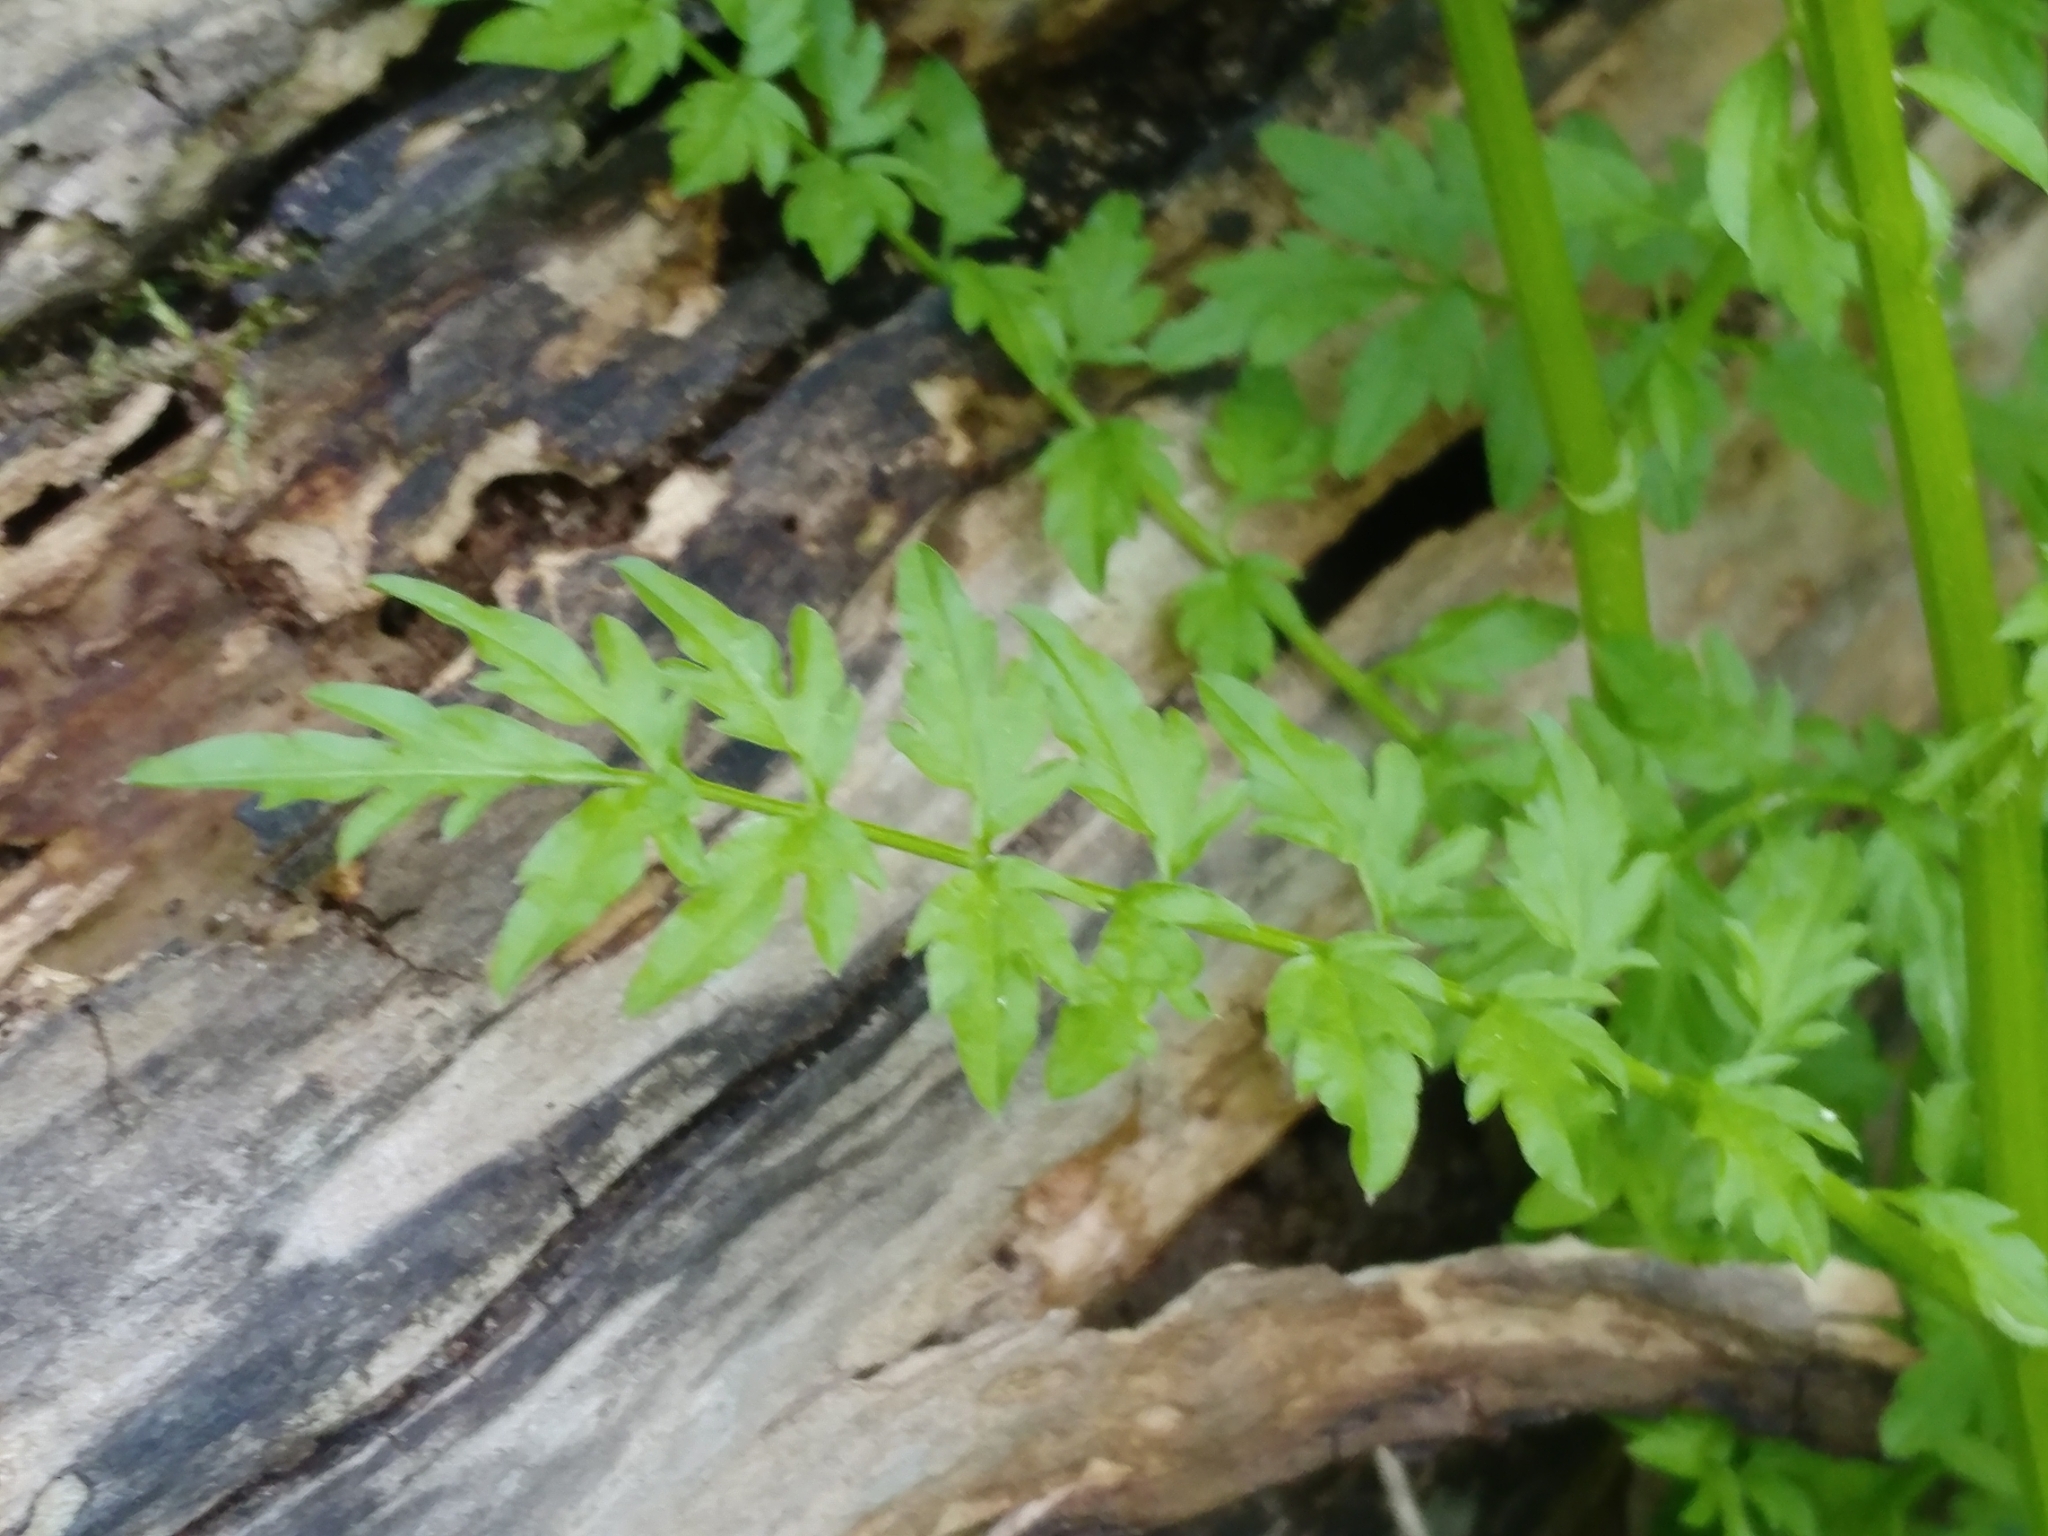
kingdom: Plantae
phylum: Tracheophyta
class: Magnoliopsida
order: Brassicales
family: Brassicaceae
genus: Cardamine
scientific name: Cardamine impatiens
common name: Narrow-leaved bitter-cress
